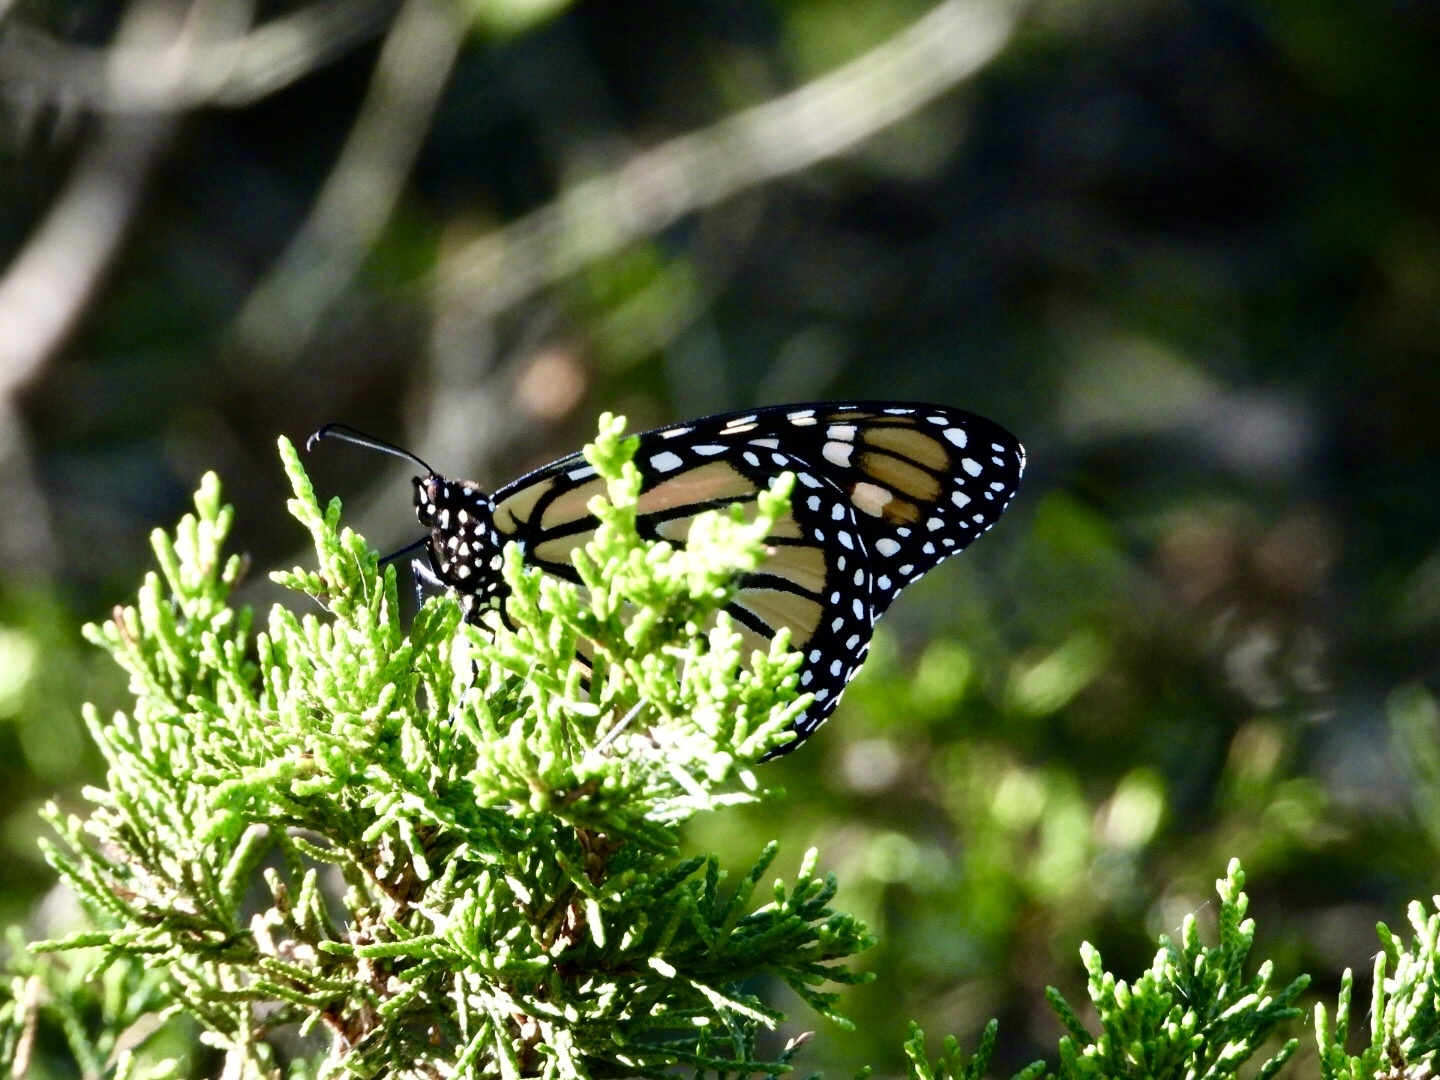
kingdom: Animalia
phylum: Arthropoda
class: Insecta
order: Lepidoptera
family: Nymphalidae
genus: Danaus
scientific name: Danaus plexippus
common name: Monarch
